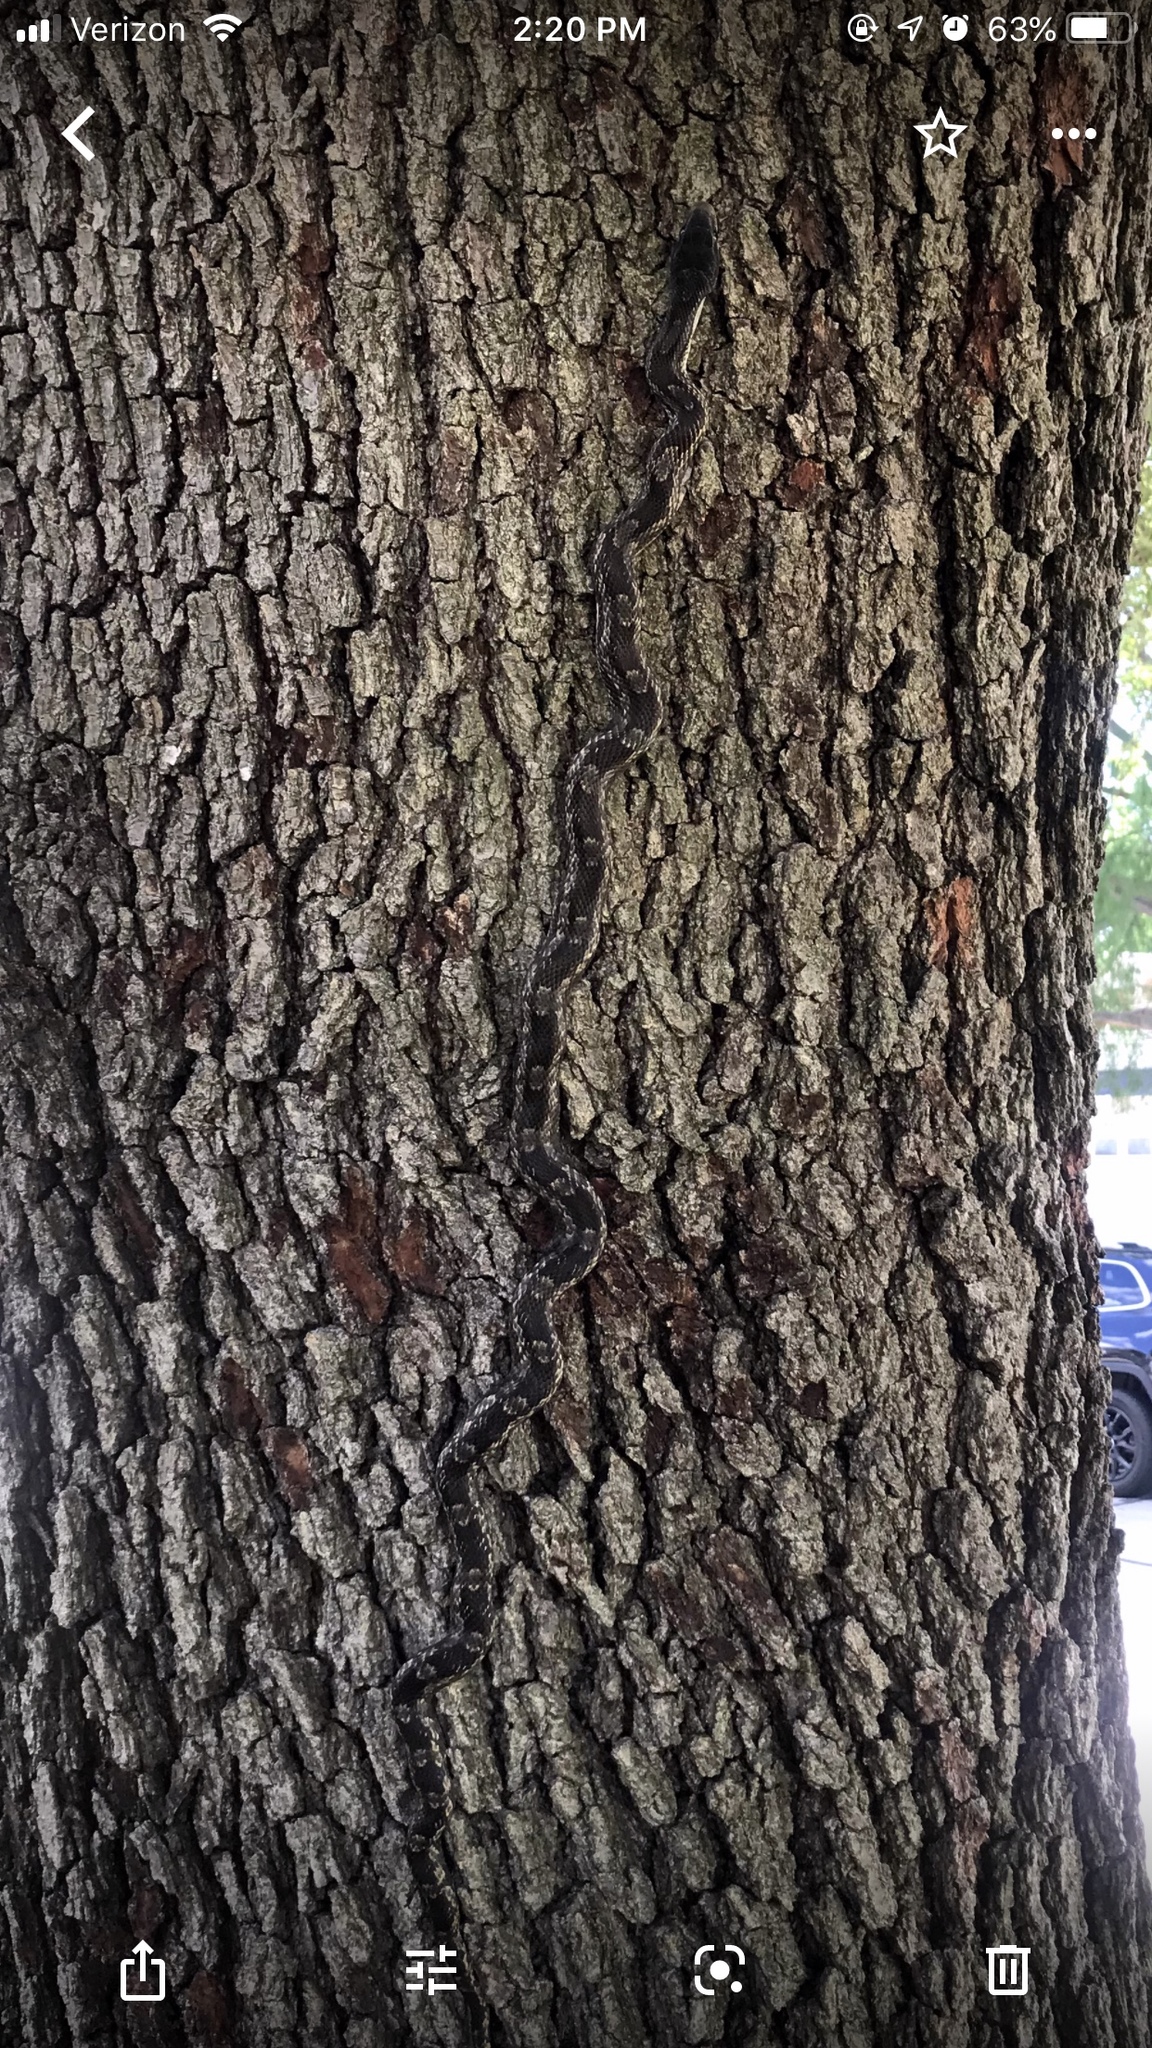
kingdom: Animalia
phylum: Chordata
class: Squamata
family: Colubridae
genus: Pantherophis
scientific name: Pantherophis obsoletus
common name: Black rat snake
